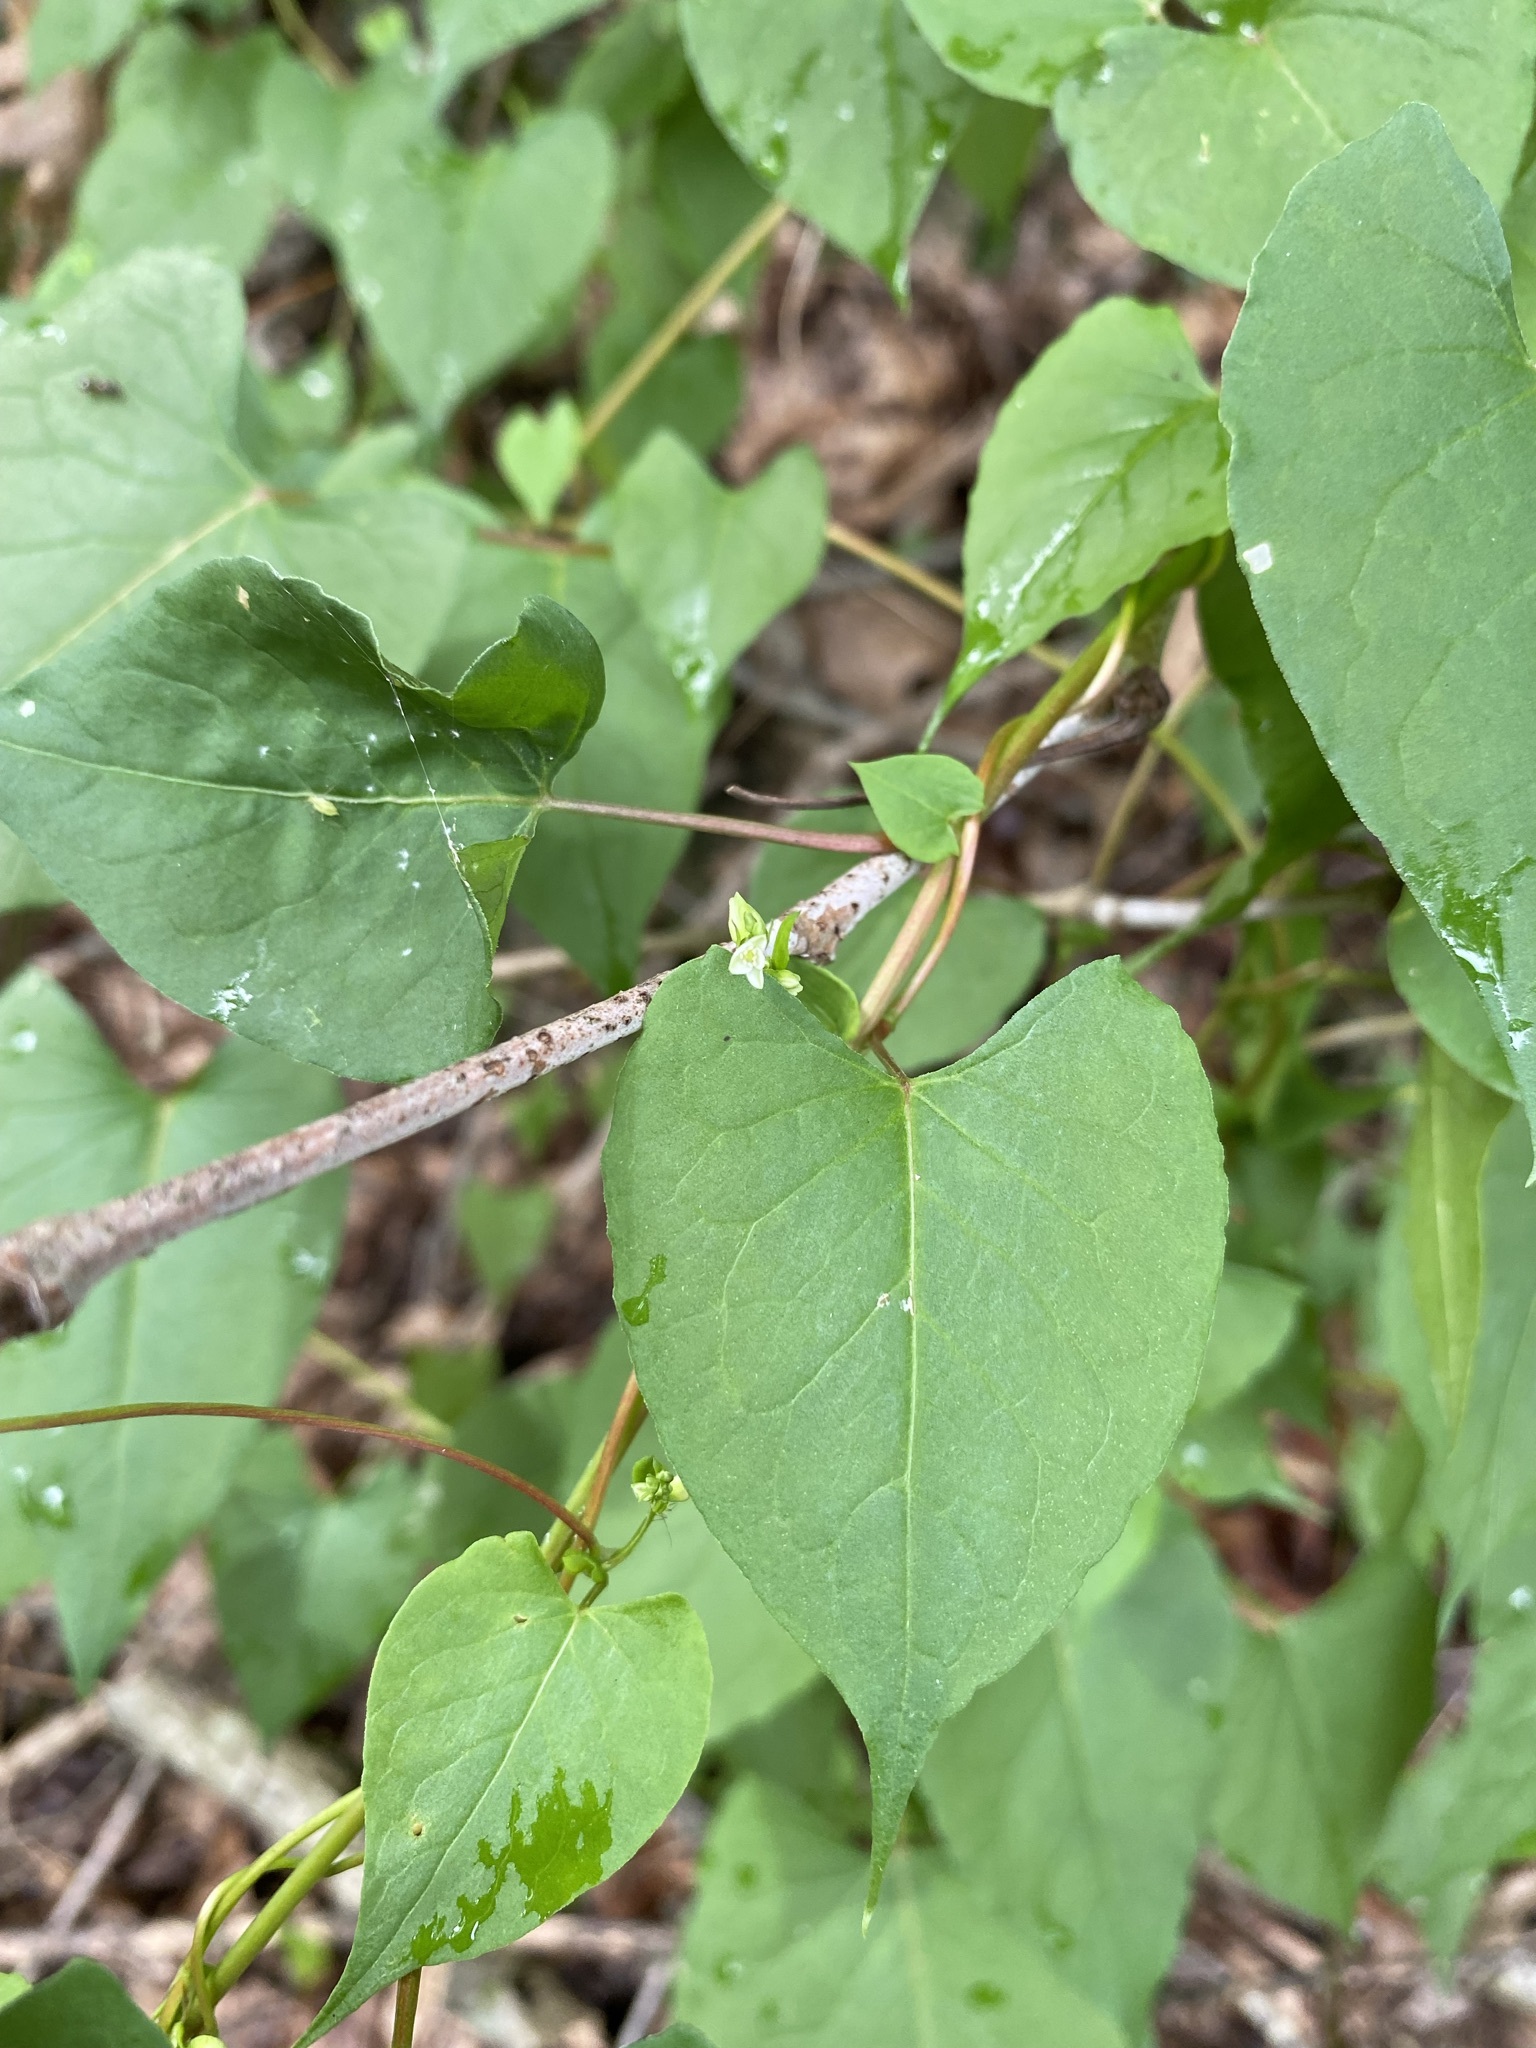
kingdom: Plantae
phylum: Tracheophyta
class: Magnoliopsida
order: Caryophyllales
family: Polygonaceae
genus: Fallopia
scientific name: Fallopia scandens
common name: Climbing false buckwheat
